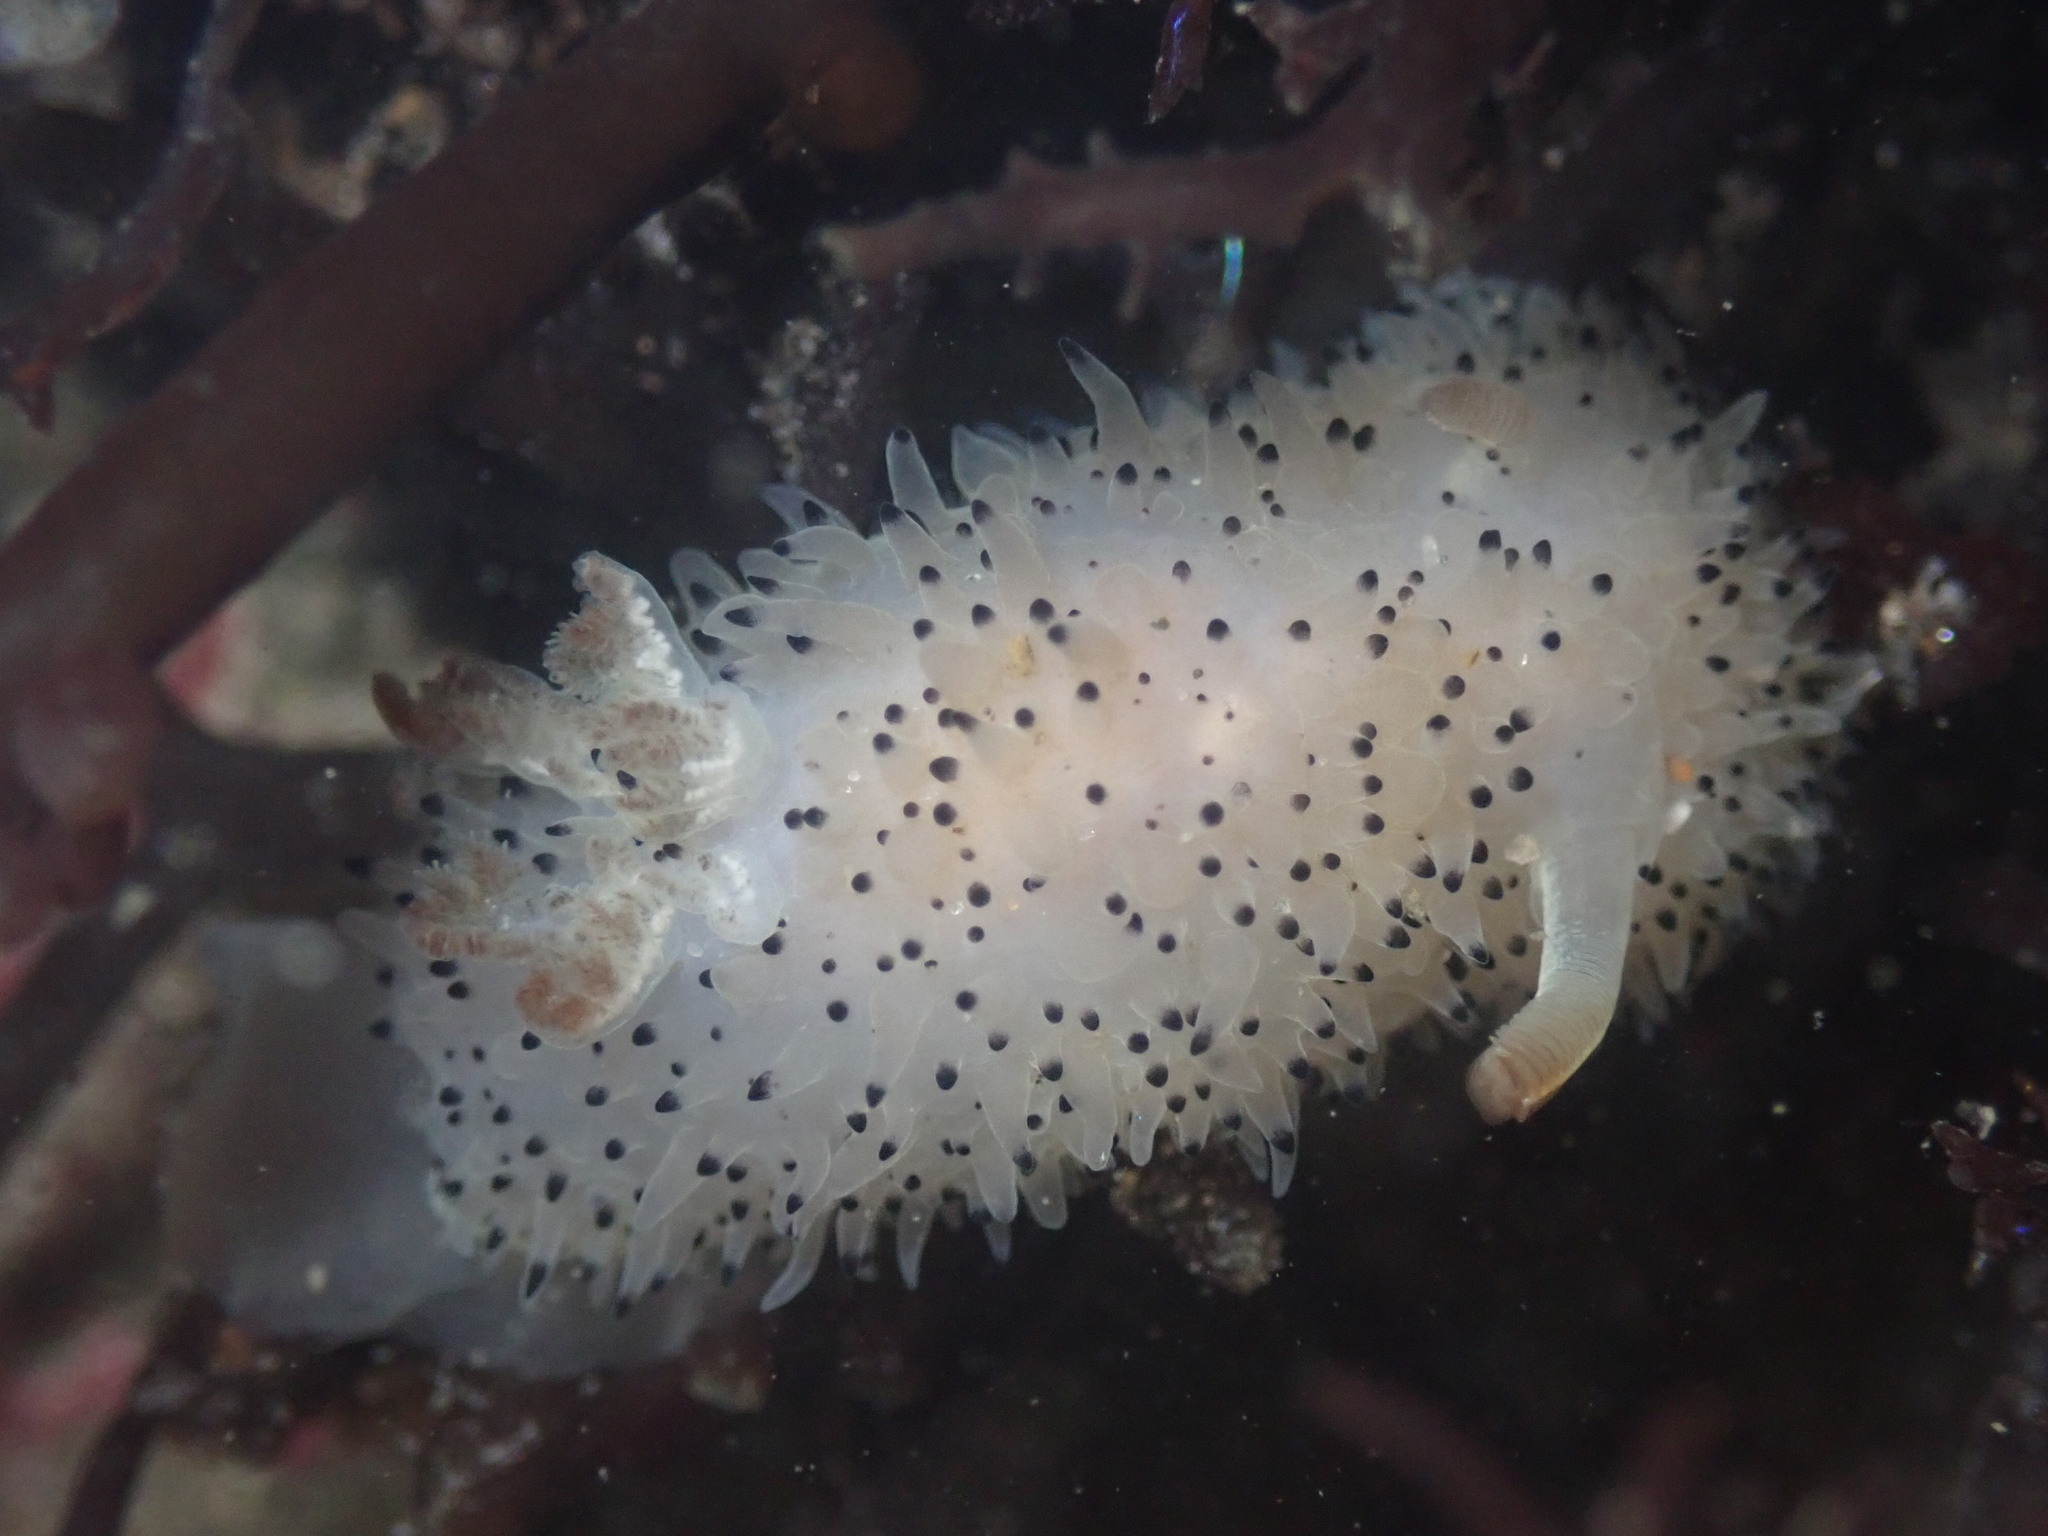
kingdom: Animalia
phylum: Mollusca
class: Gastropoda
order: Nudibranchia
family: Onchidorididae
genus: Acanthodoris
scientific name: Acanthodoris rhodoceras
